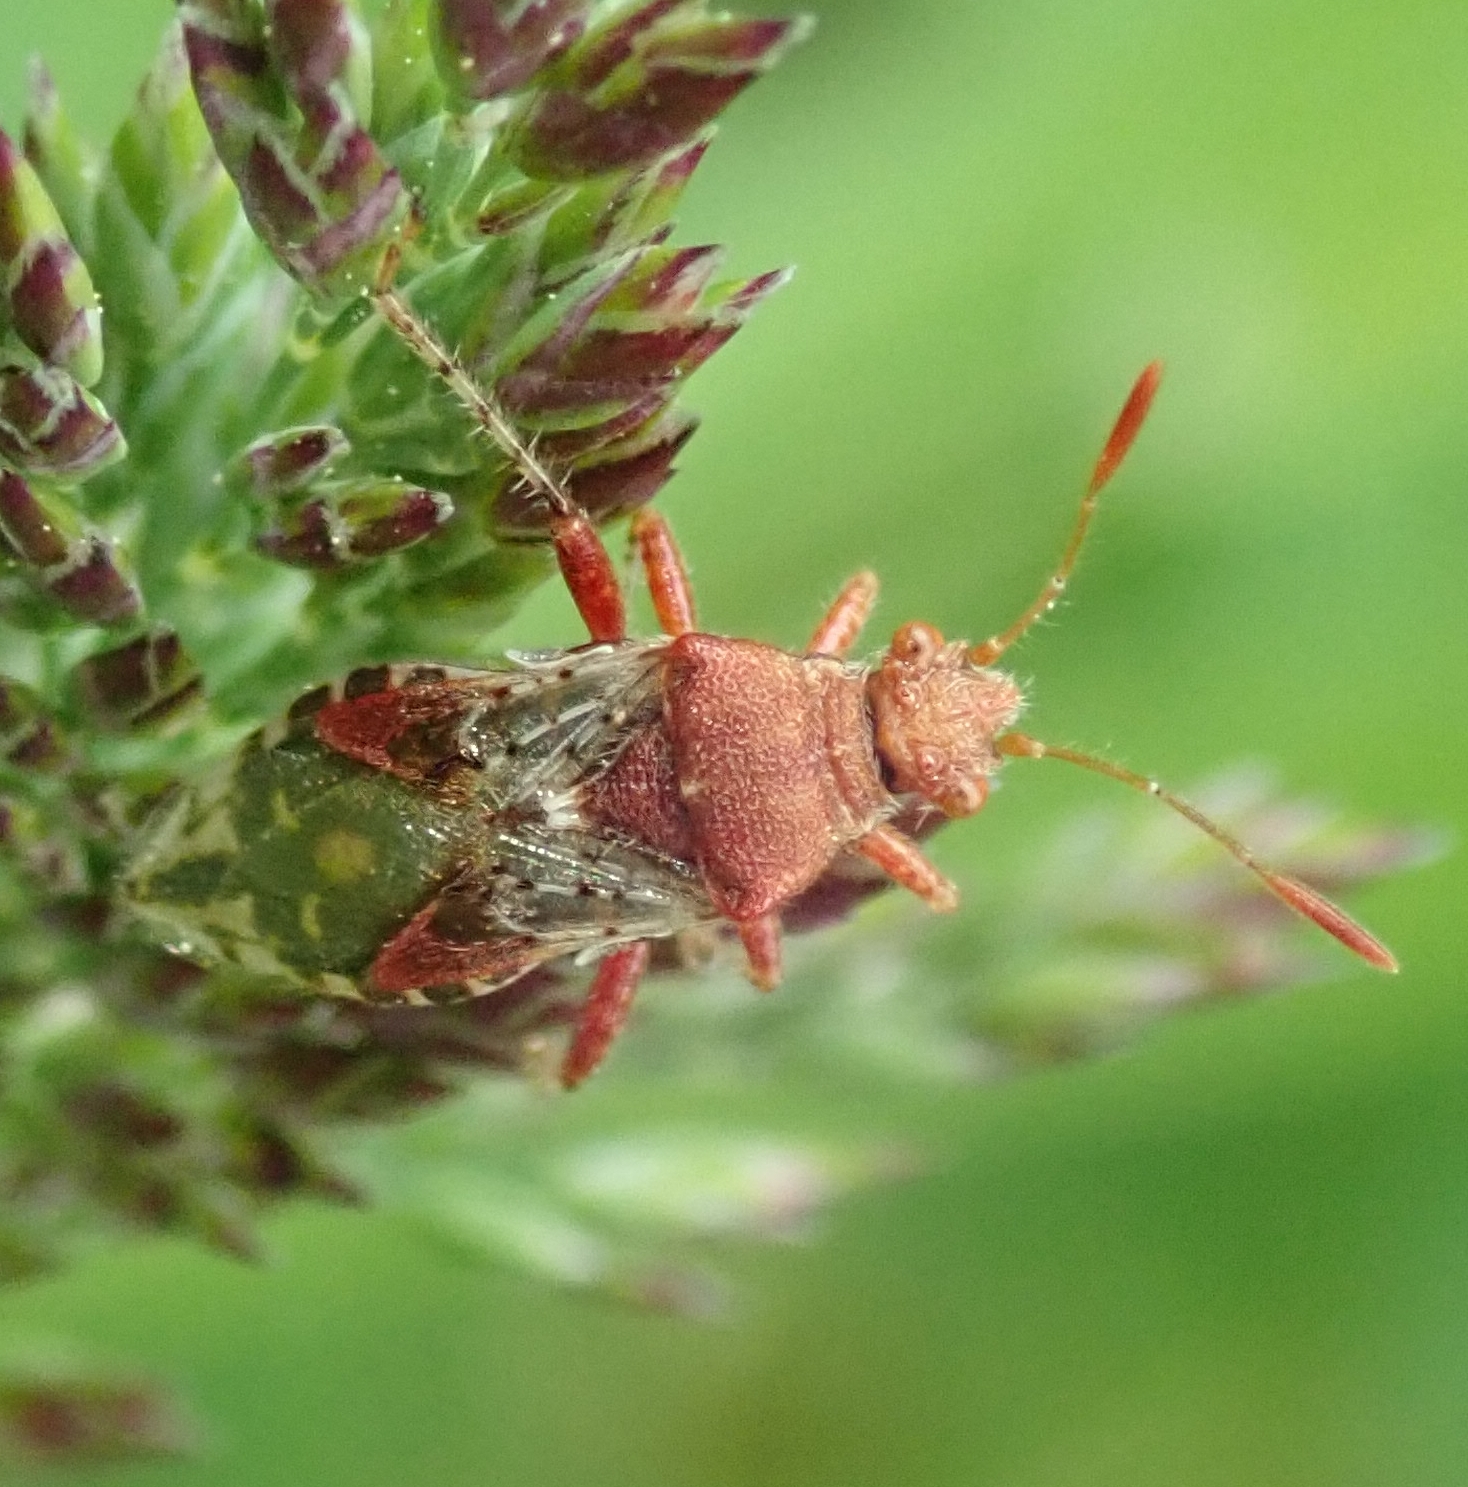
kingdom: Animalia
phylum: Arthropoda
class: Insecta
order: Hemiptera
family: Rhopalidae
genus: Rhopalus
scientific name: Rhopalus subrufus
